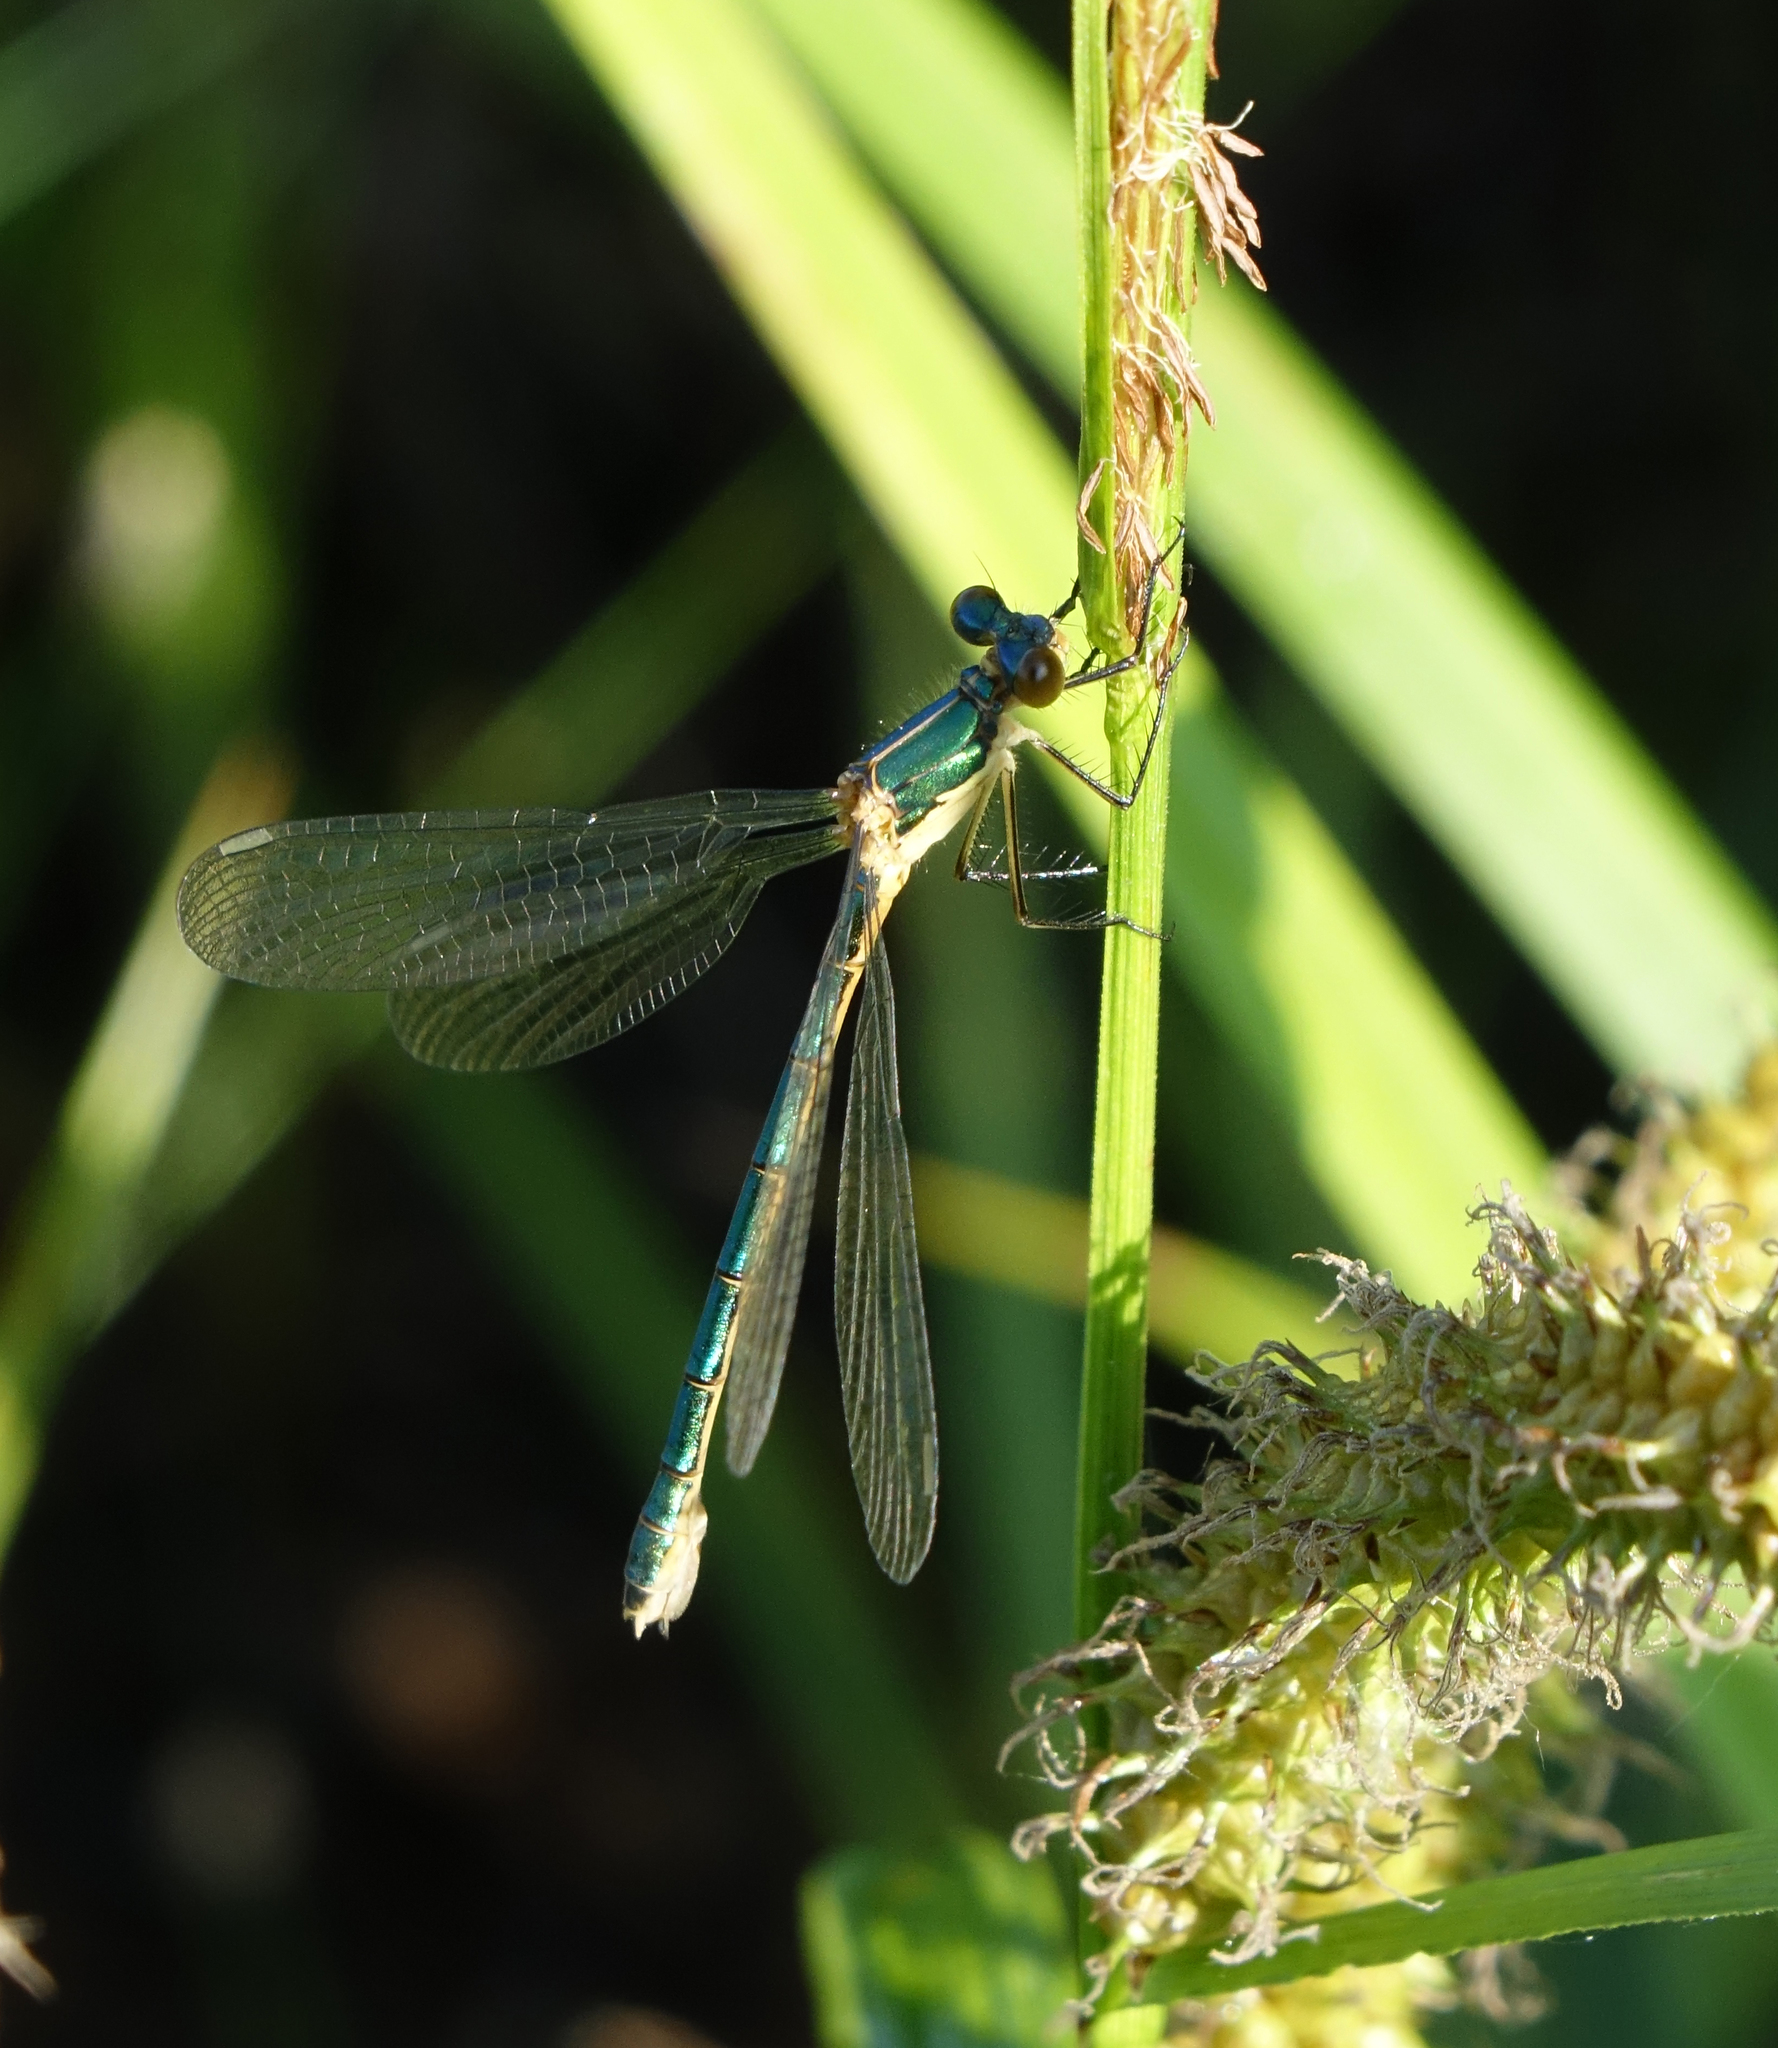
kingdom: Animalia
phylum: Arthropoda
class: Insecta
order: Odonata
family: Lestidae
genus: Lestes
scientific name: Lestes dryas
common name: Scarce emerald damselfly
